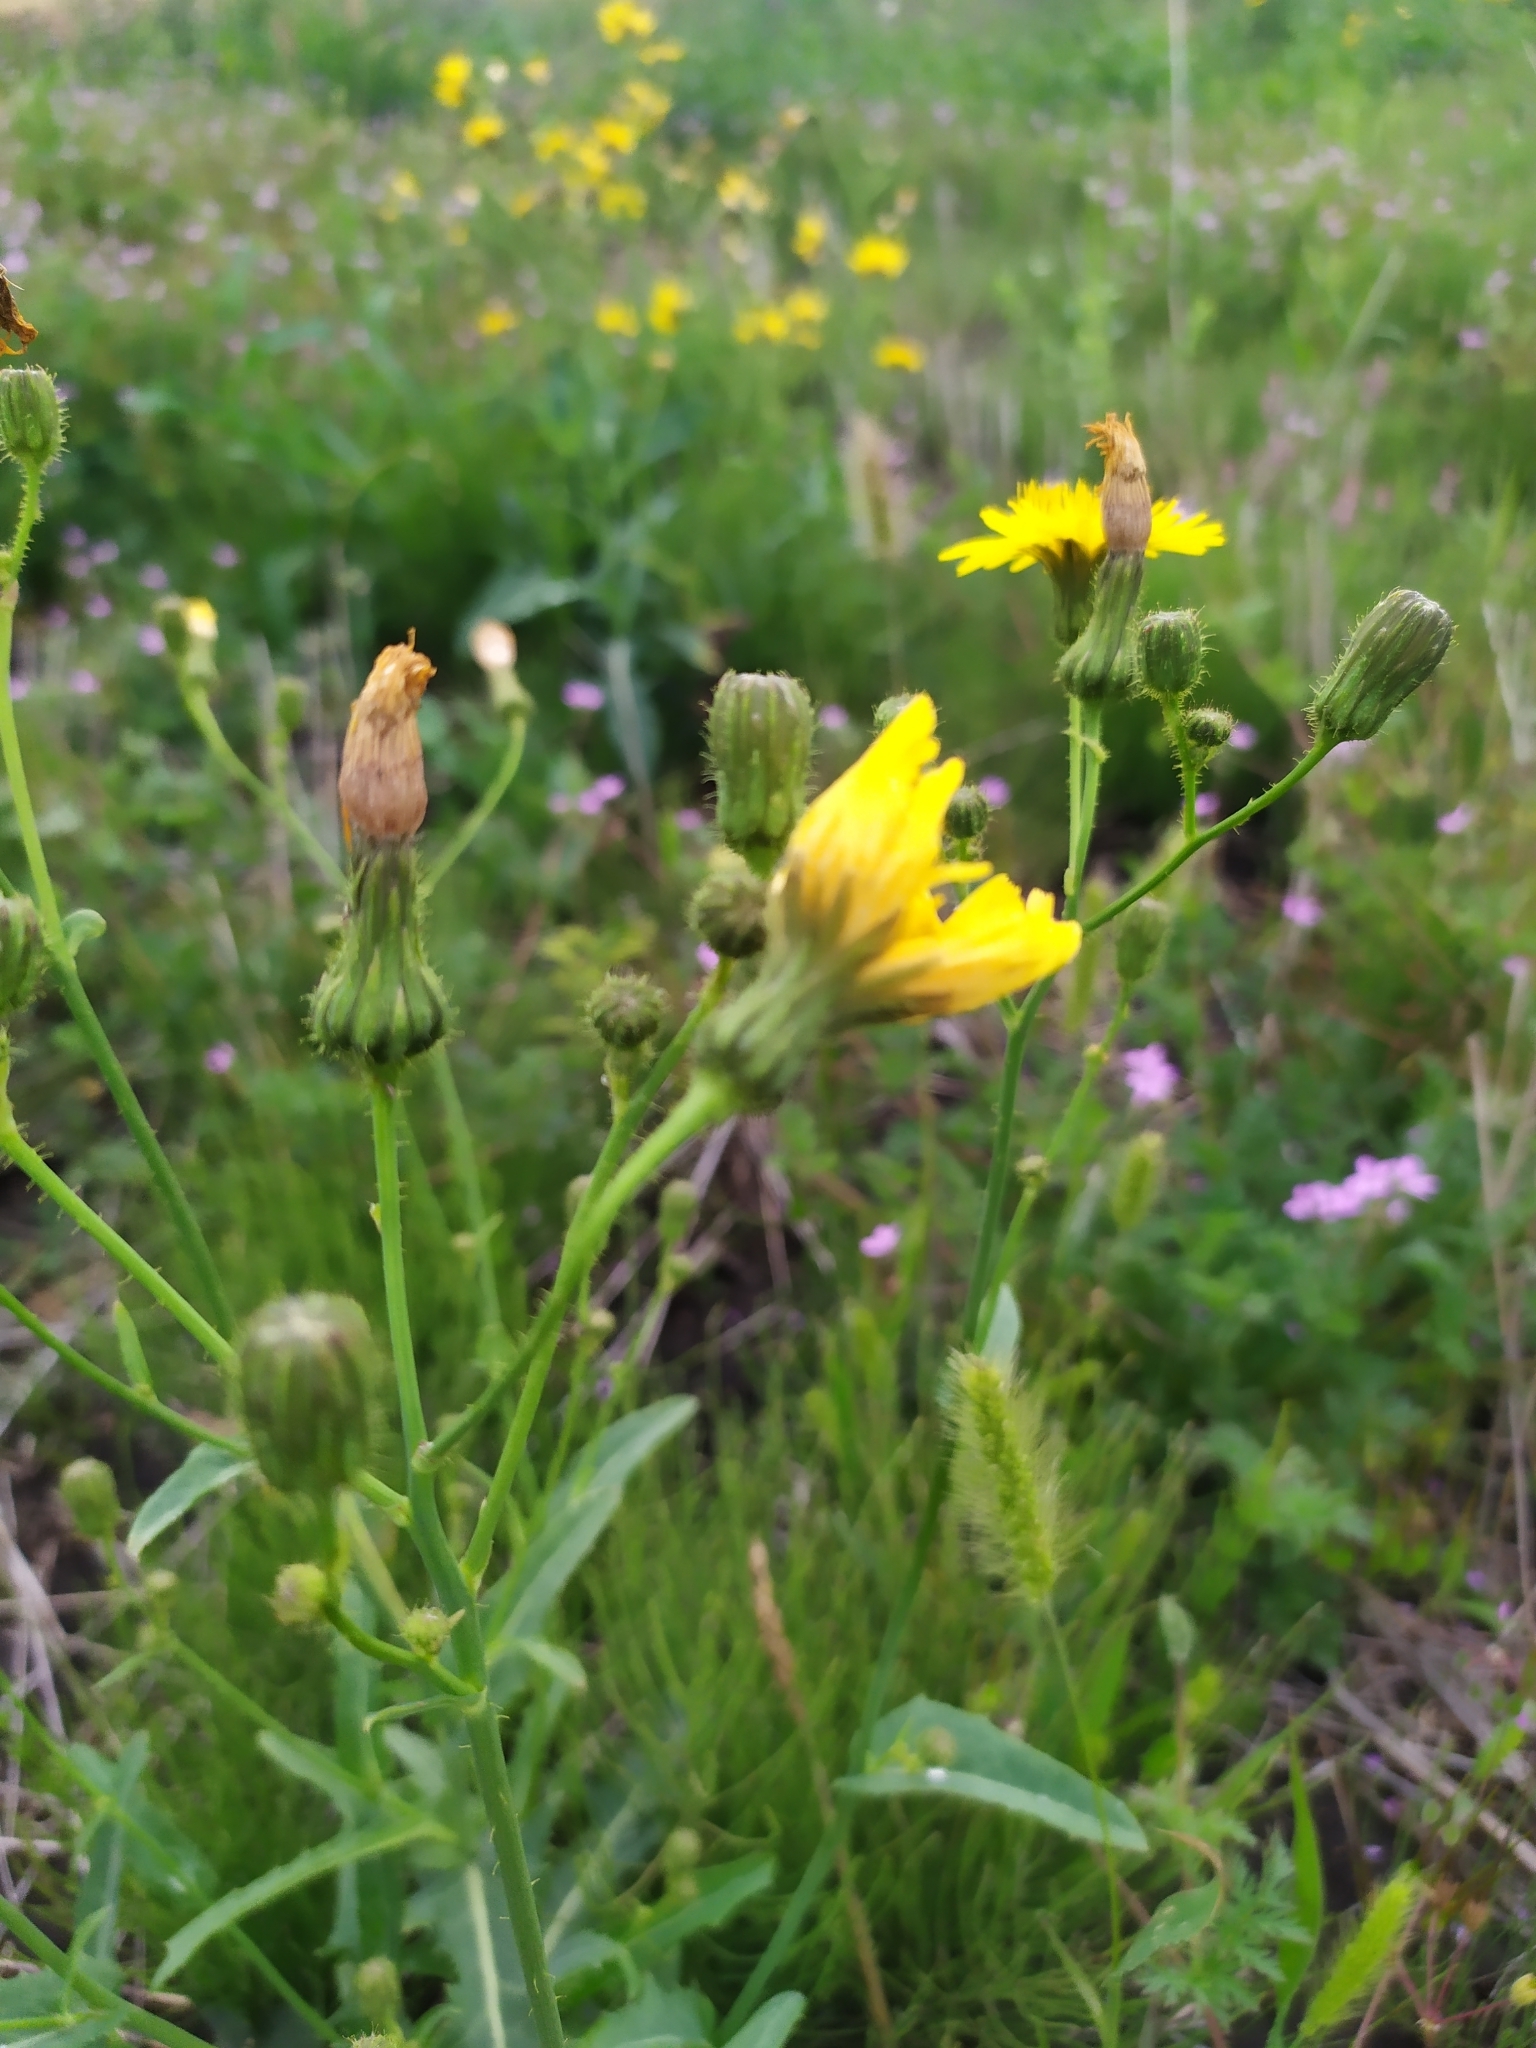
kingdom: Plantae
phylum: Tracheophyta
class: Magnoliopsida
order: Asterales
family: Asteraceae
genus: Sonchus
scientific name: Sonchus arvensis
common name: Perennial sow-thistle
